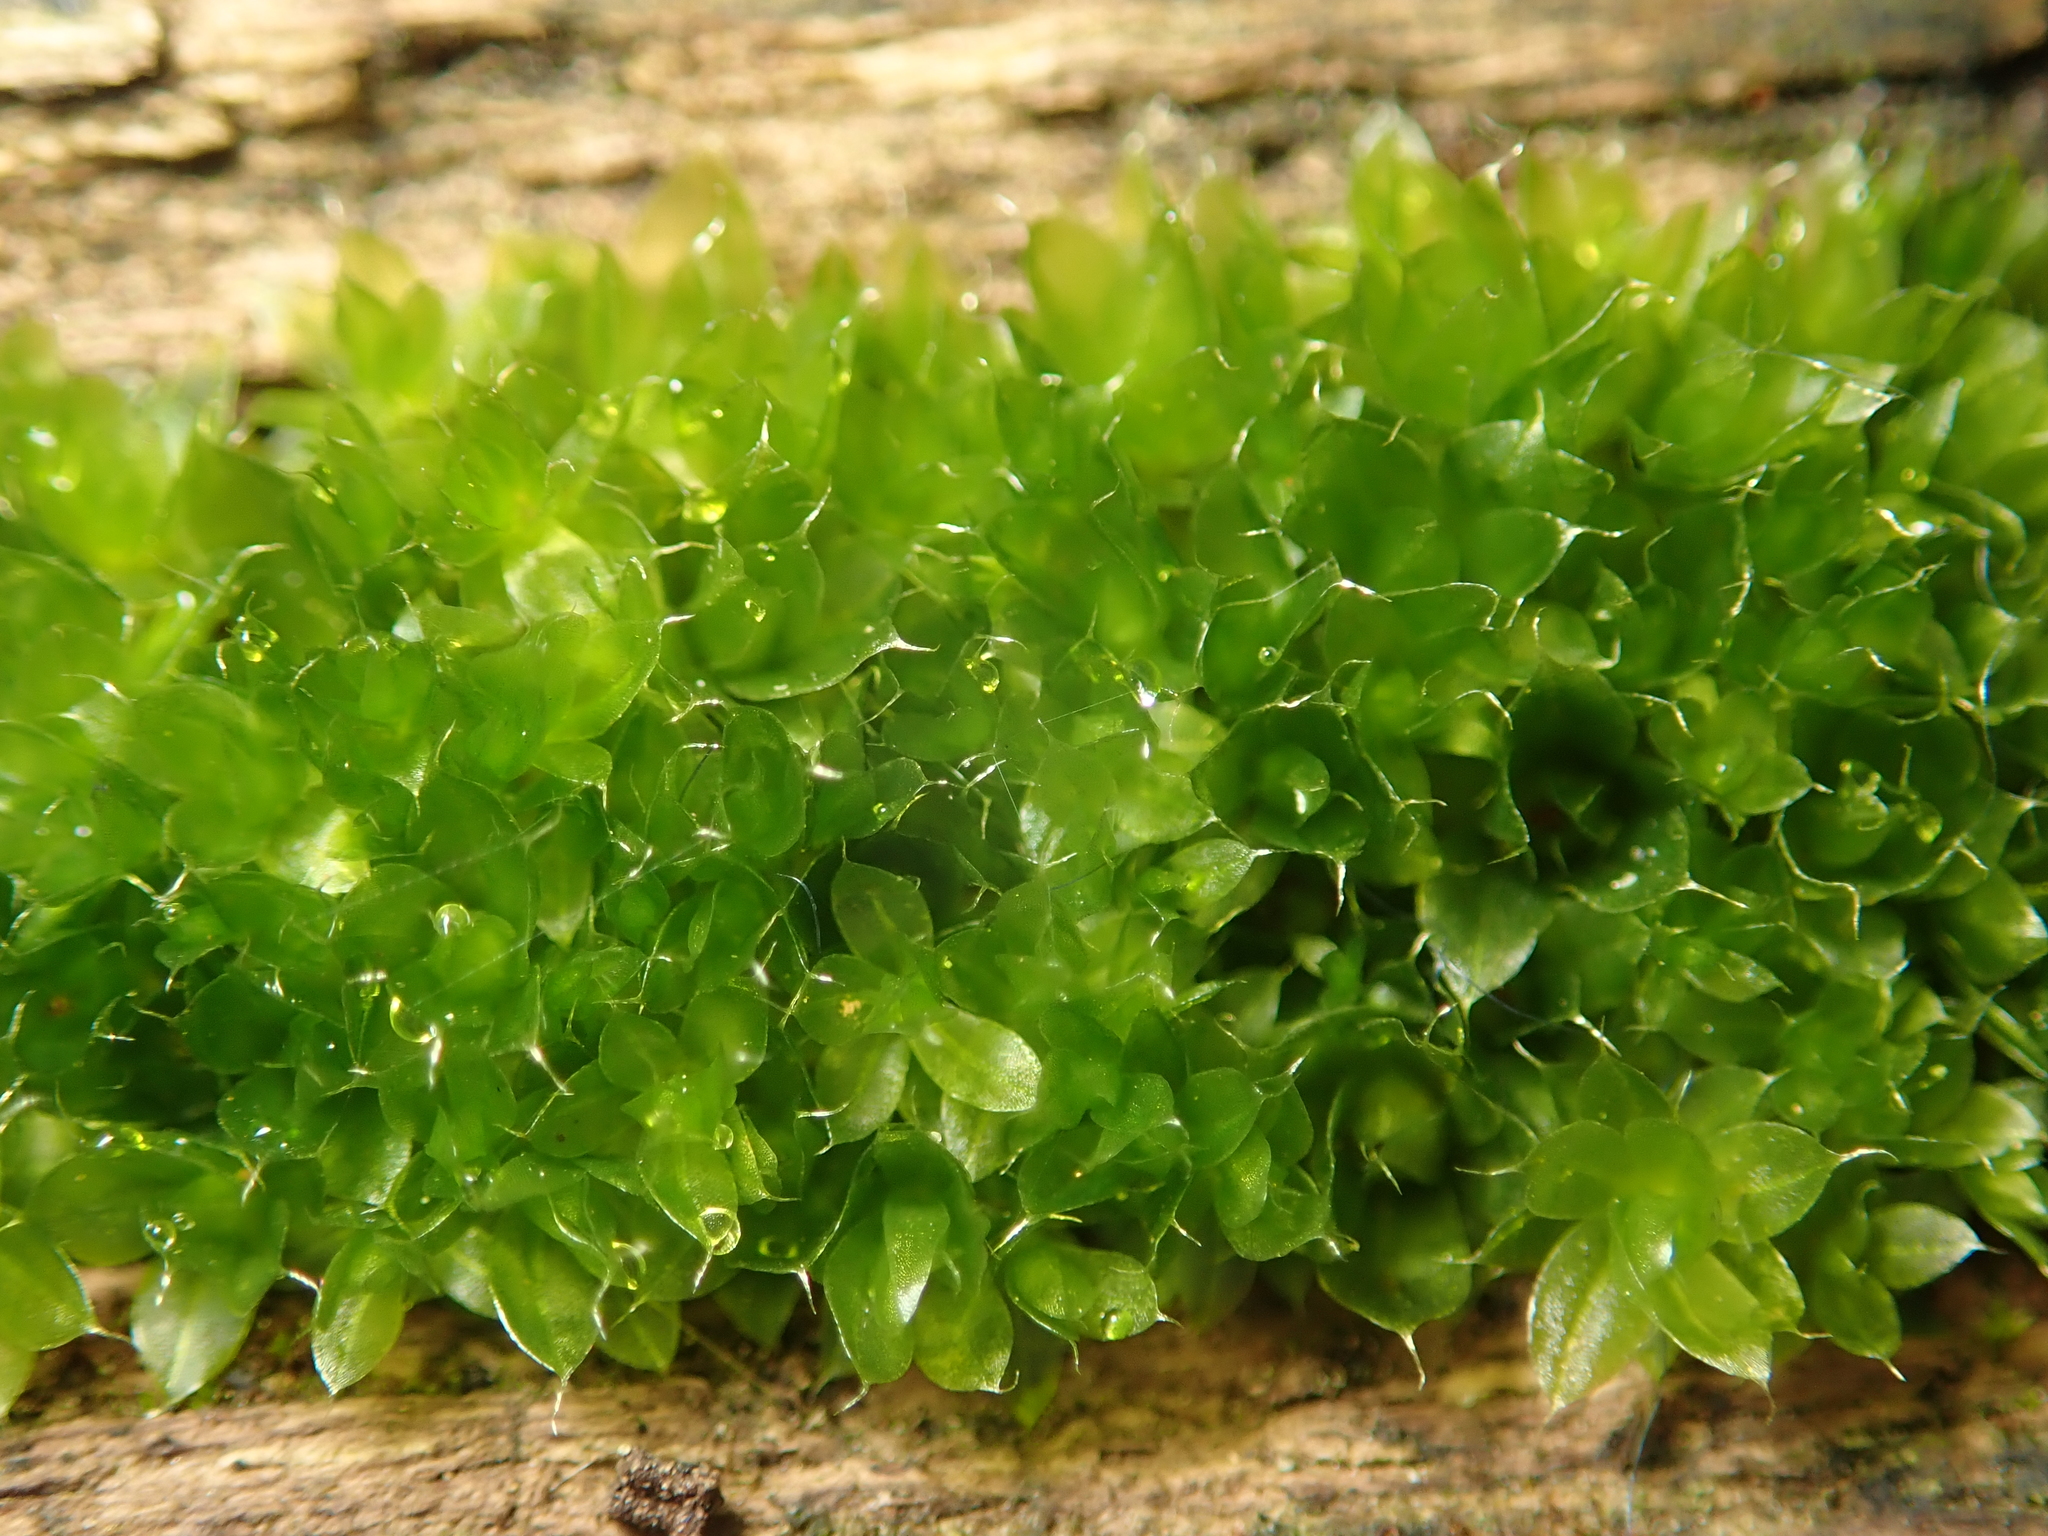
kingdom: Plantae
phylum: Bryophyta
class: Bryopsida
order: Bryales
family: Bryaceae
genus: Rosulabryum
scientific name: Rosulabryum capillare
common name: Capillary thread-moss
